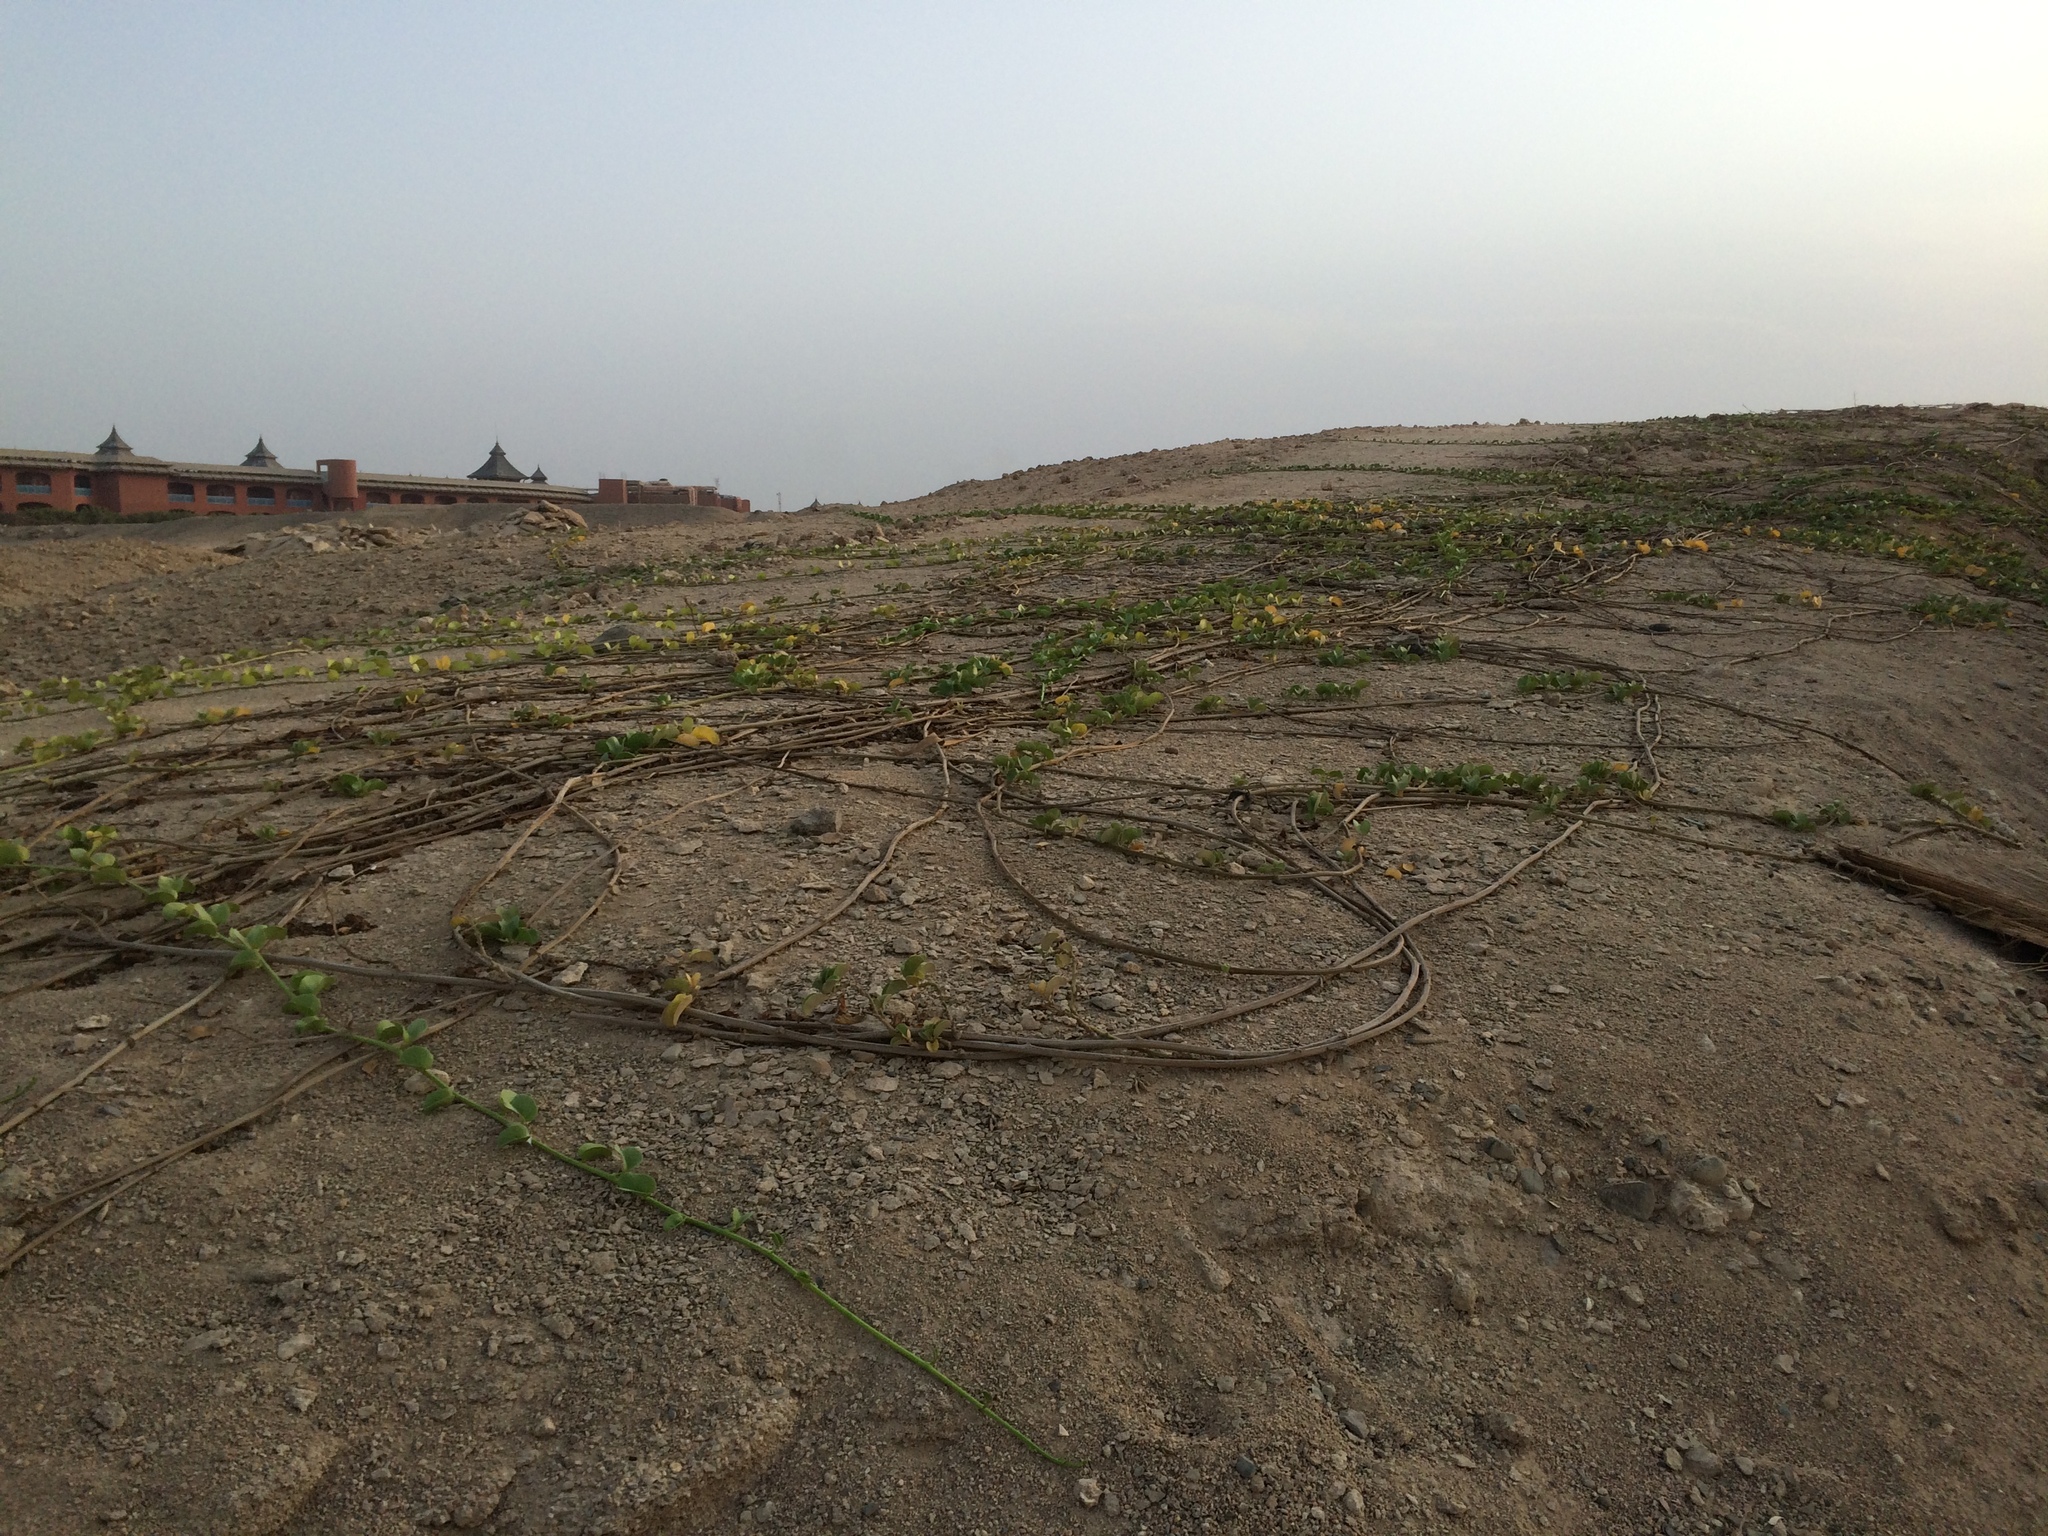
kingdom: Plantae
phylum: Tracheophyta
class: Magnoliopsida
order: Solanales
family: Convolvulaceae
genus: Ipomoea
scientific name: Ipomoea pes-caprae
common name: Beach morning glory
